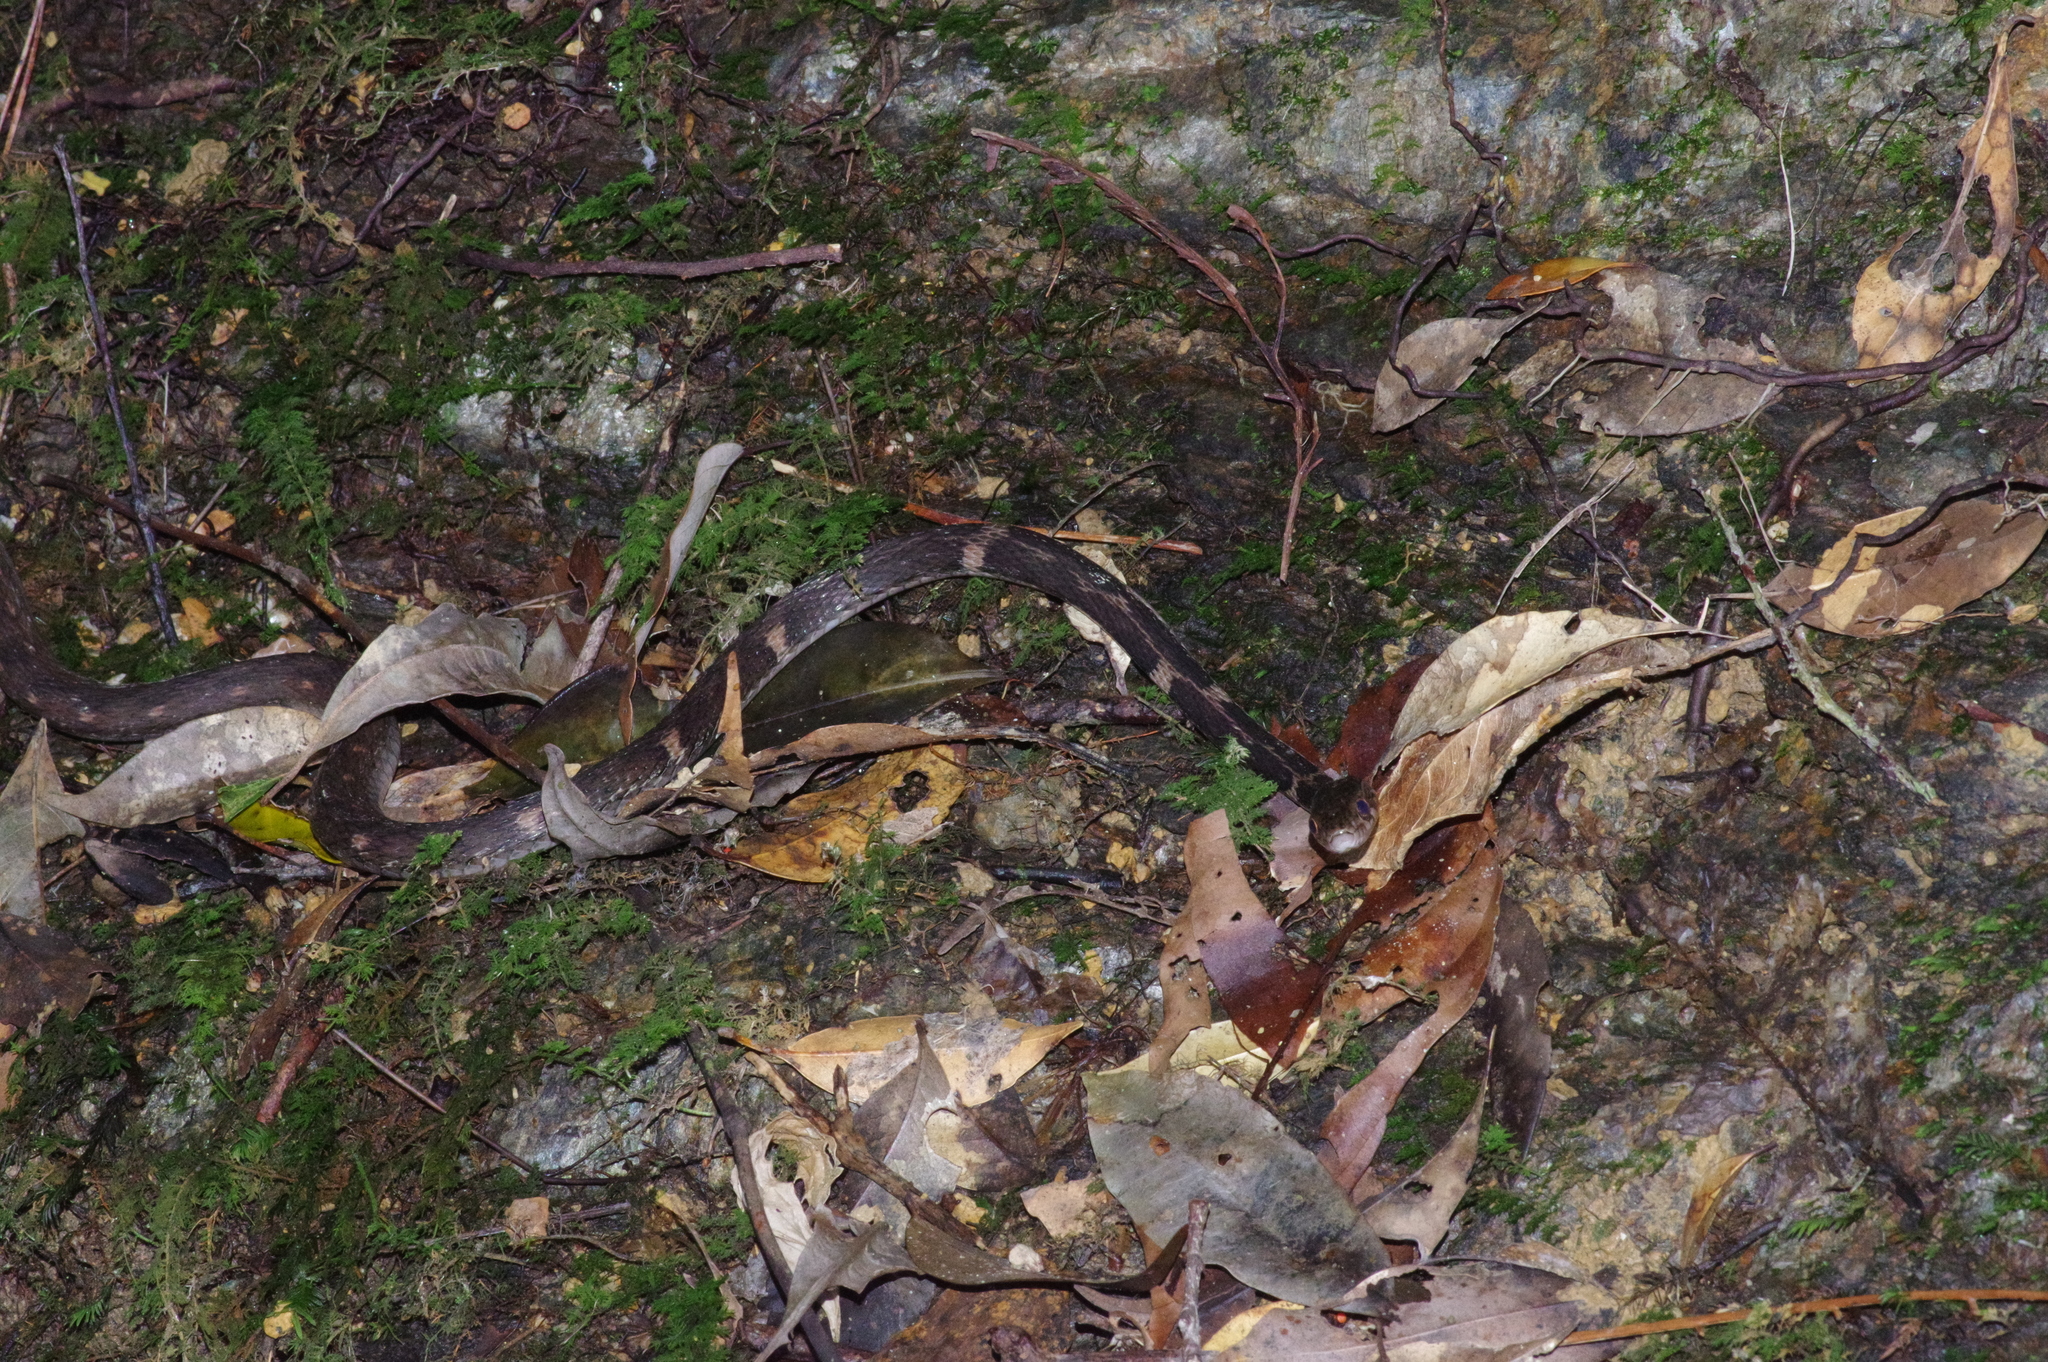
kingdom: Animalia
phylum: Chordata
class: Squamata
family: Colubridae
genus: Hebius
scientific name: Hebius pryeri
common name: Pryer's keelback
